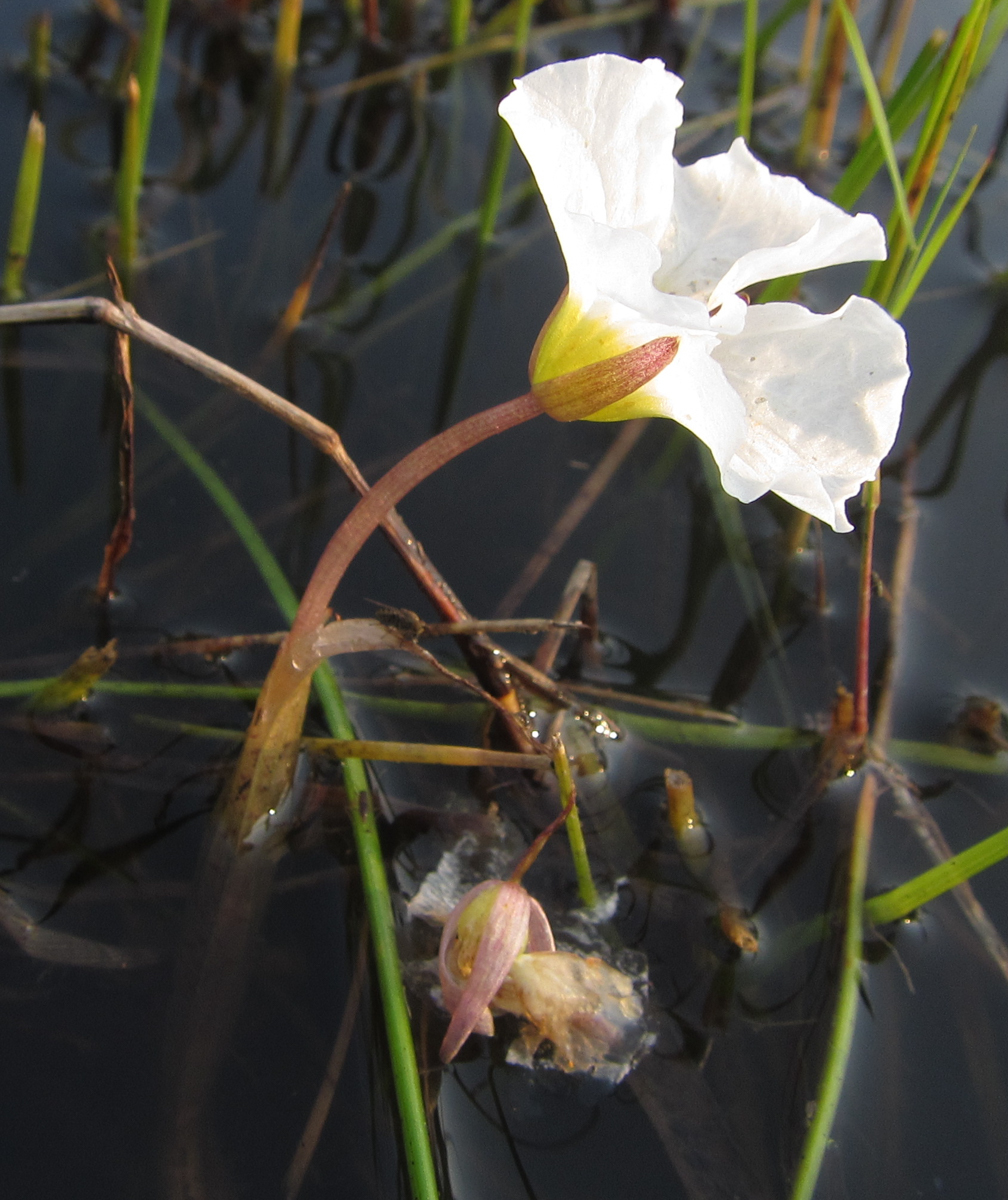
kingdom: Plantae
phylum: Tracheophyta
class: Liliopsida
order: Alismatales
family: Hydrocharitaceae
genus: Ottelia
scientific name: Ottelia kunenensis
